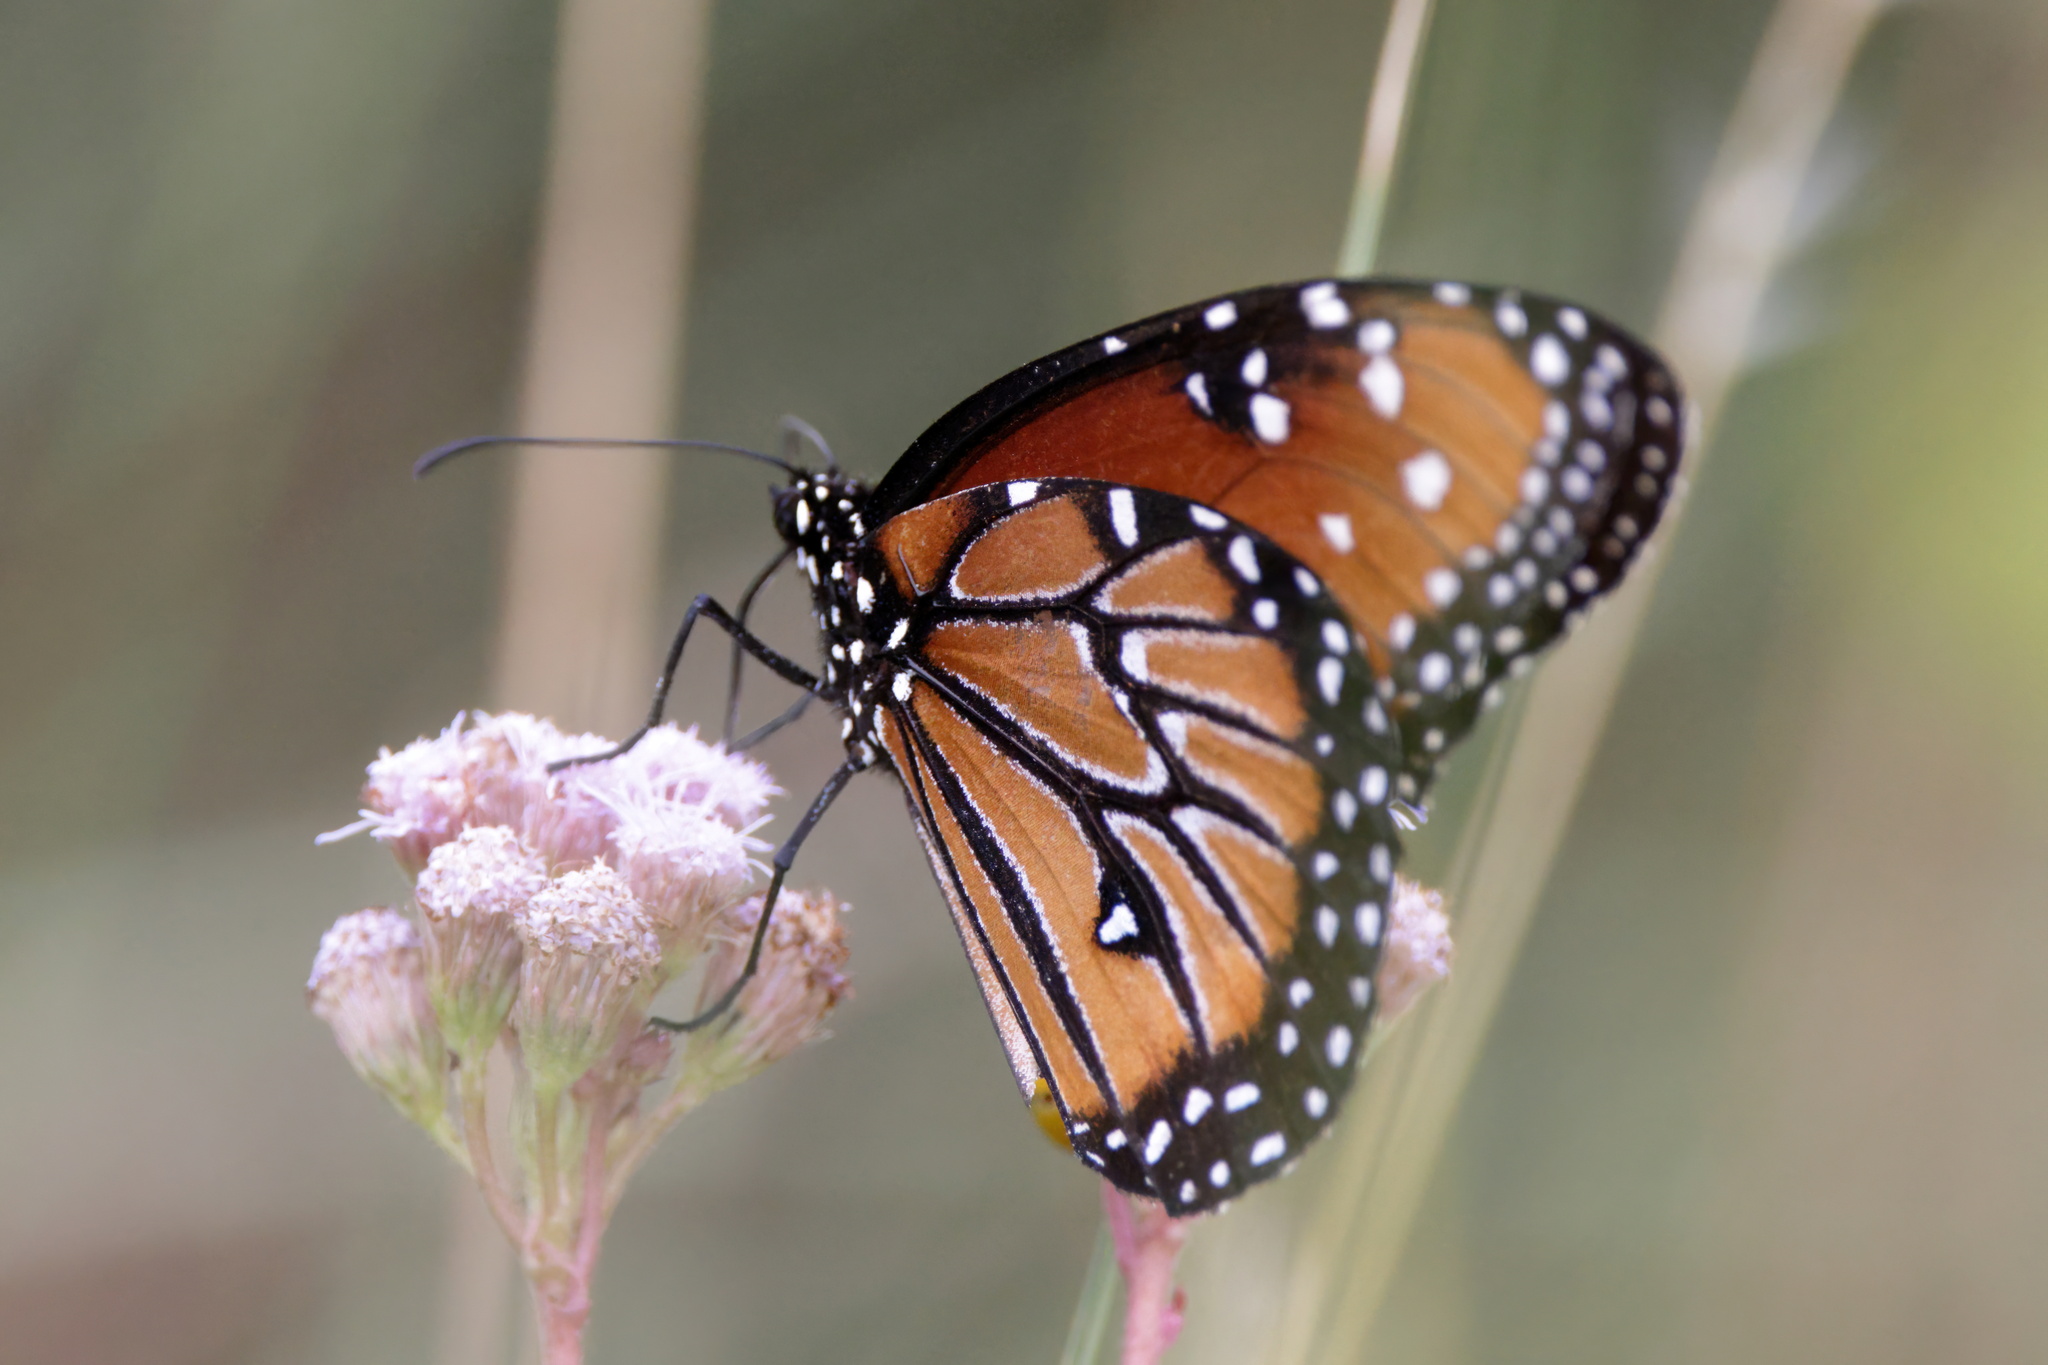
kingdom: Animalia
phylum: Arthropoda
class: Insecta
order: Lepidoptera
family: Nymphalidae
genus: Danaus
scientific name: Danaus gilippus
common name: Queen
